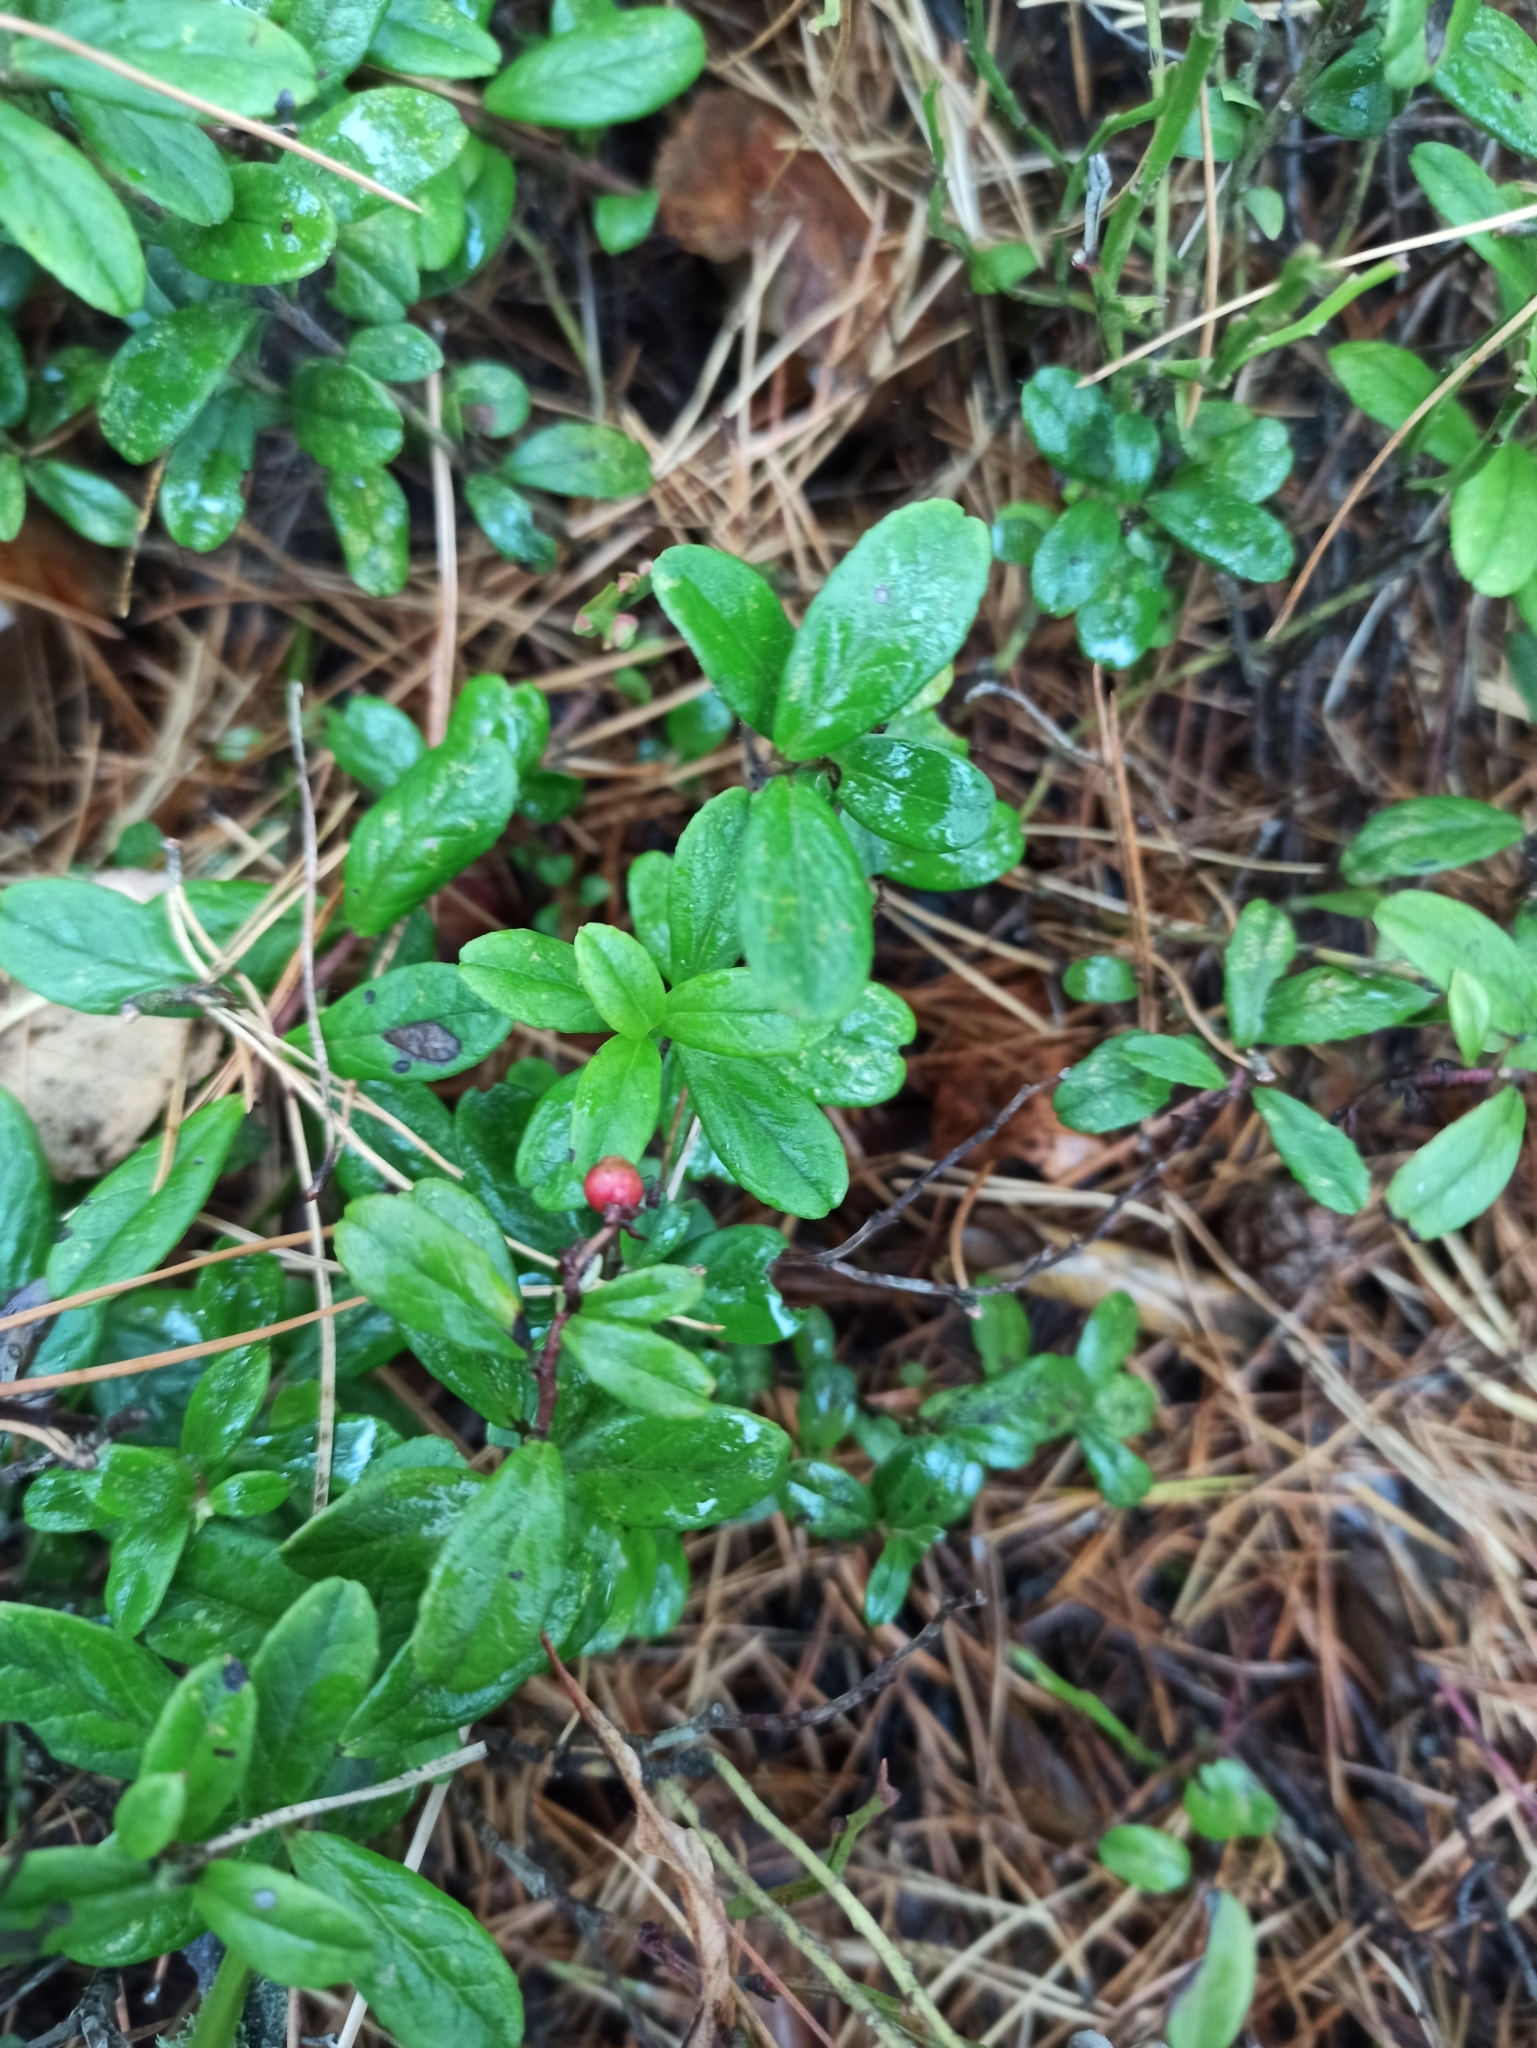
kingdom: Plantae
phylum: Tracheophyta
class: Magnoliopsida
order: Ericales
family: Ericaceae
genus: Vaccinium
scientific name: Vaccinium vitis-idaea
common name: Cowberry
